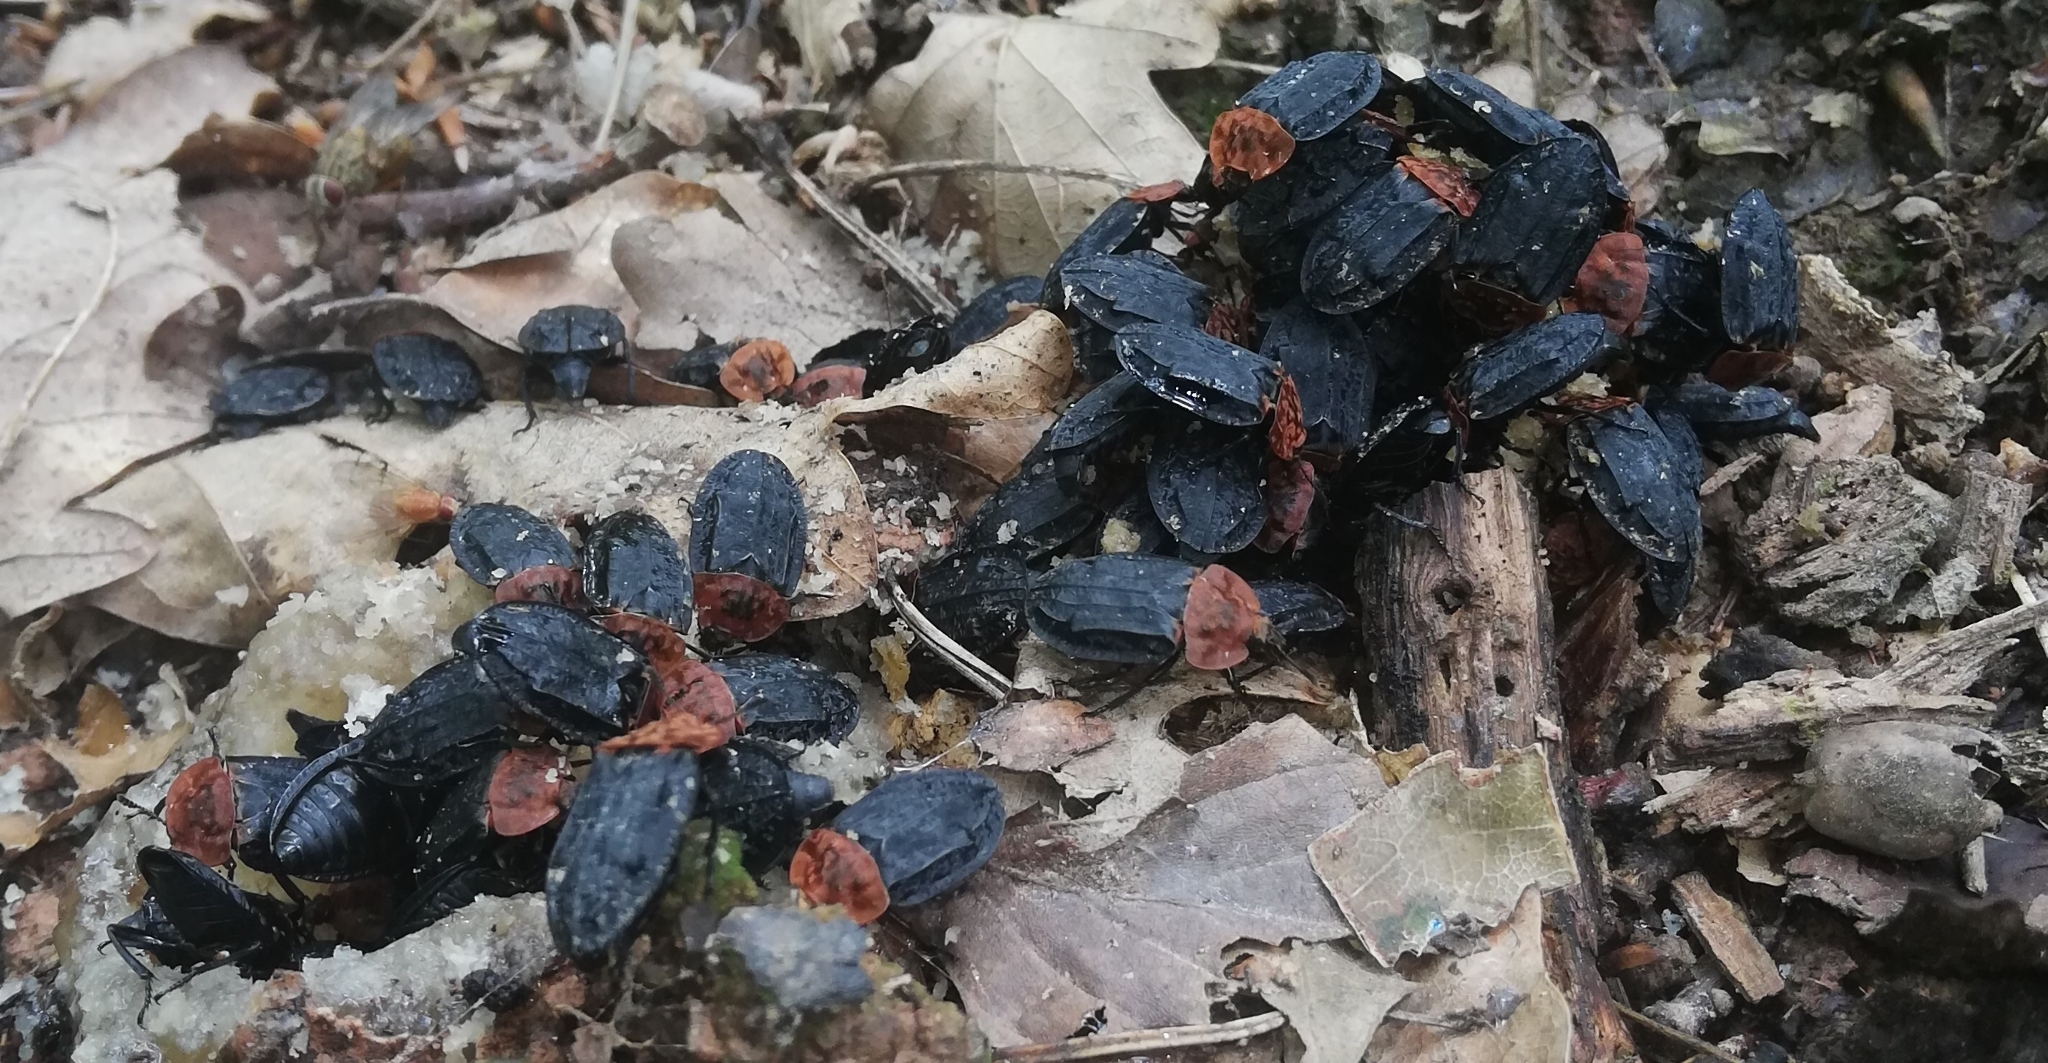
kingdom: Animalia
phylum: Arthropoda
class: Insecta
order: Coleoptera
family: Staphylinidae
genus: Oiceoptoma
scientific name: Oiceoptoma thoracicum
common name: Red-breasted carrion beetle
